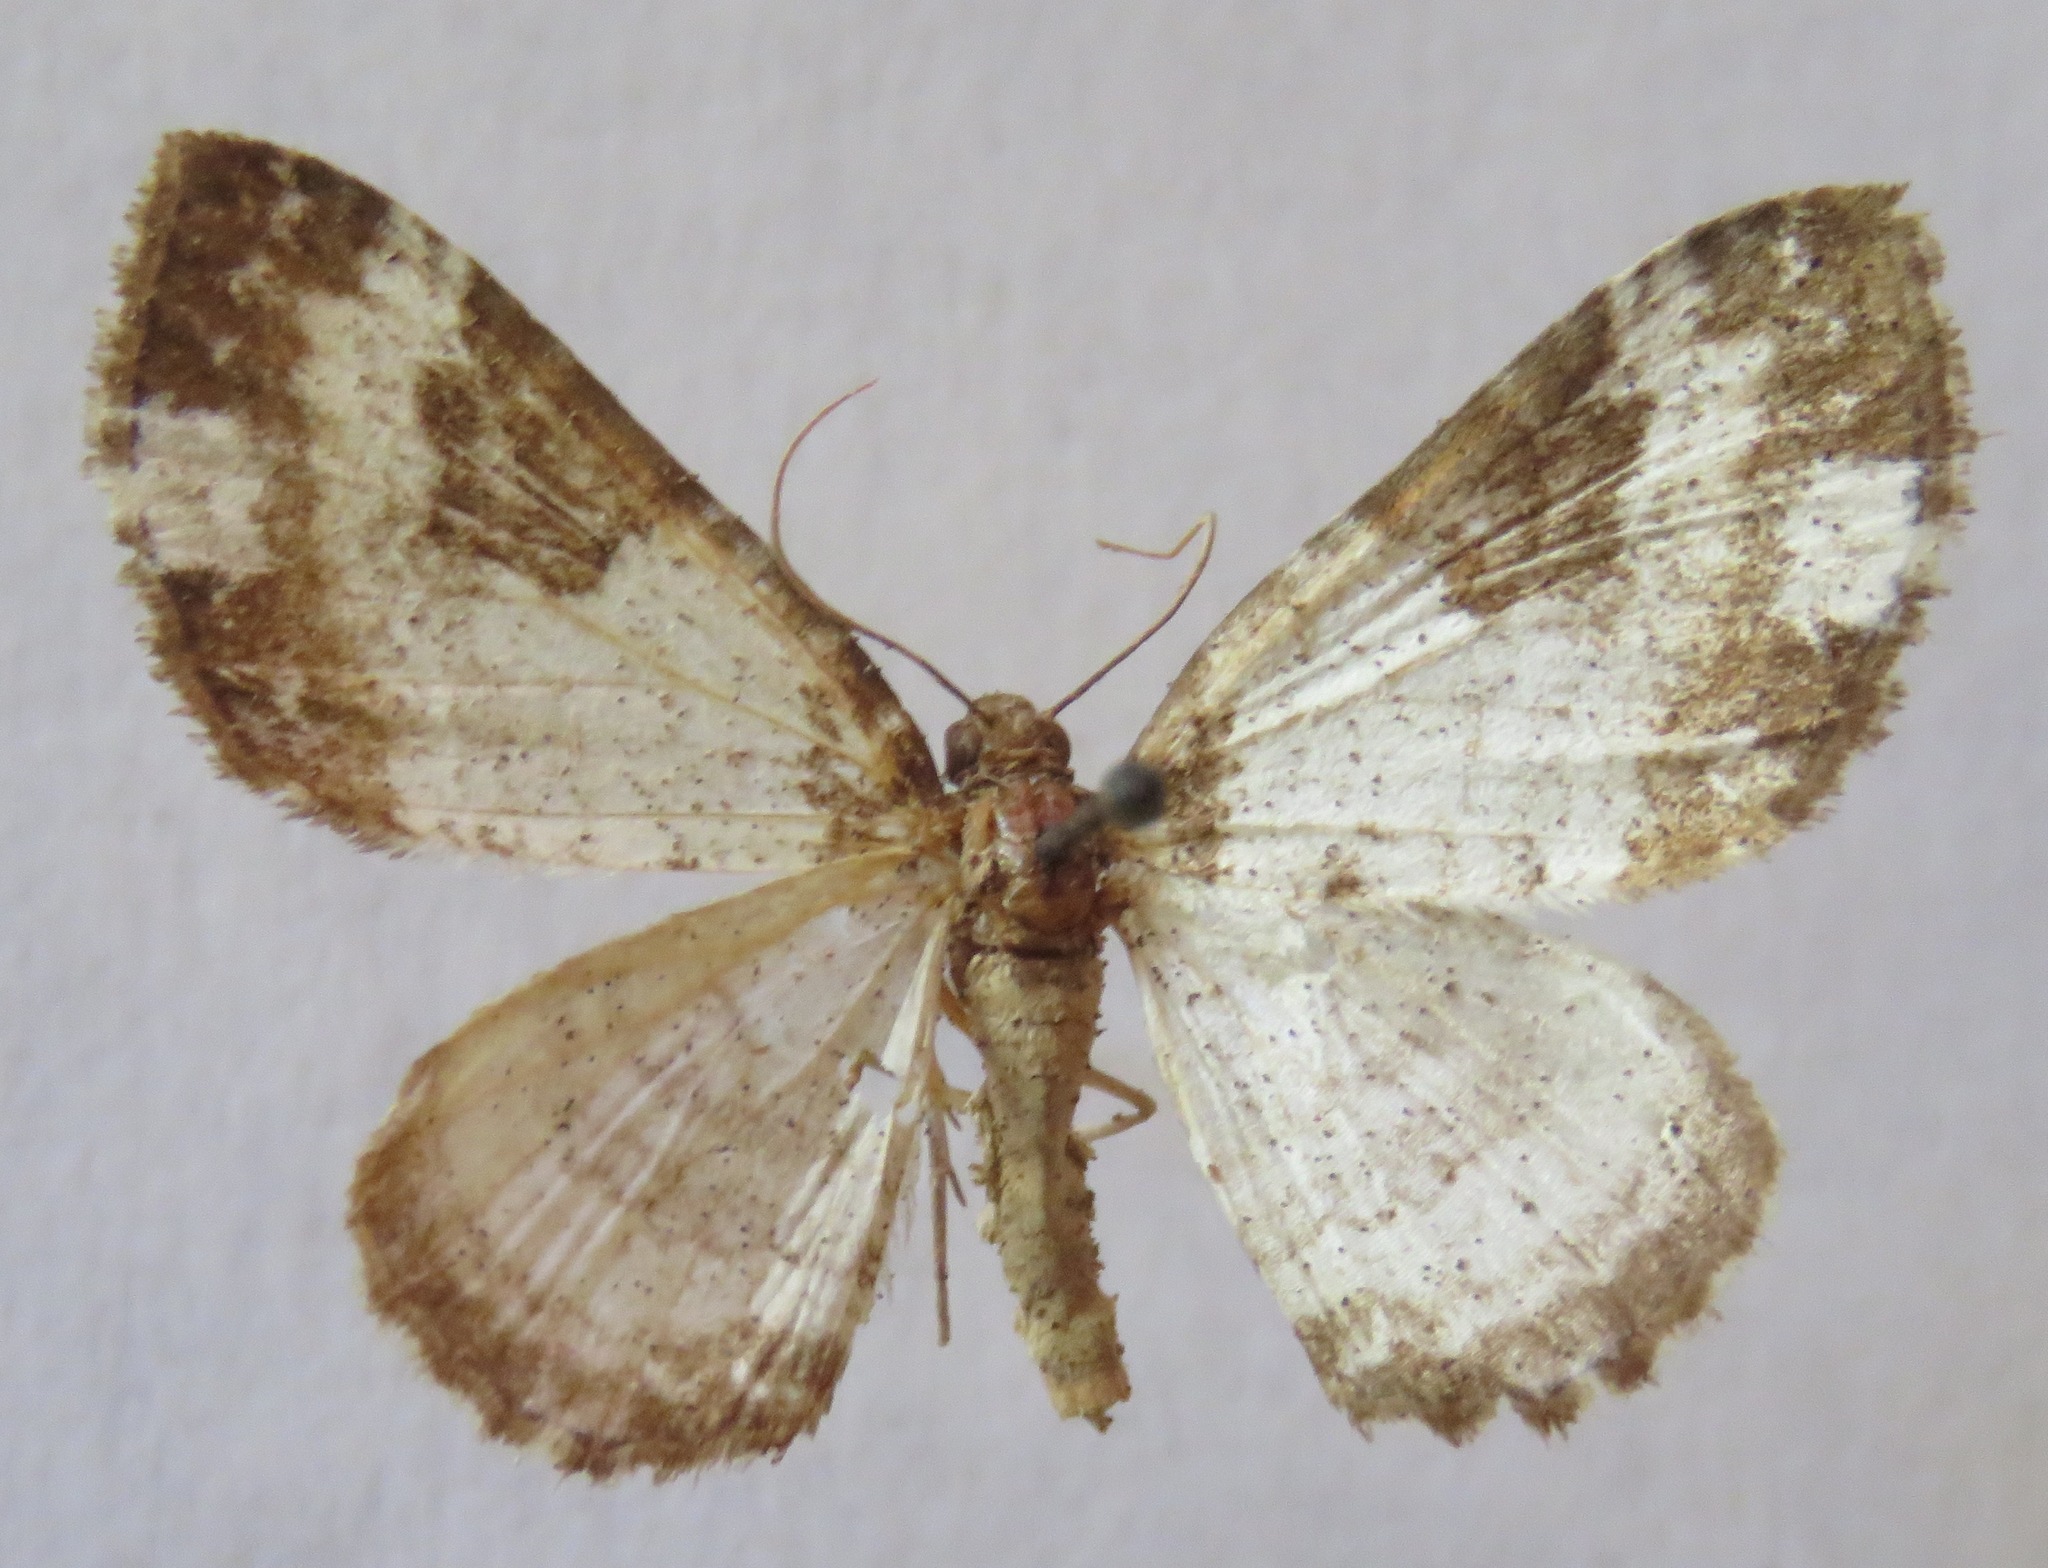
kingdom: Animalia
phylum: Arthropoda
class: Insecta
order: Lepidoptera
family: Geometridae
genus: Melanthia
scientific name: Melanthia procellata
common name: Pretty chalk carpet
